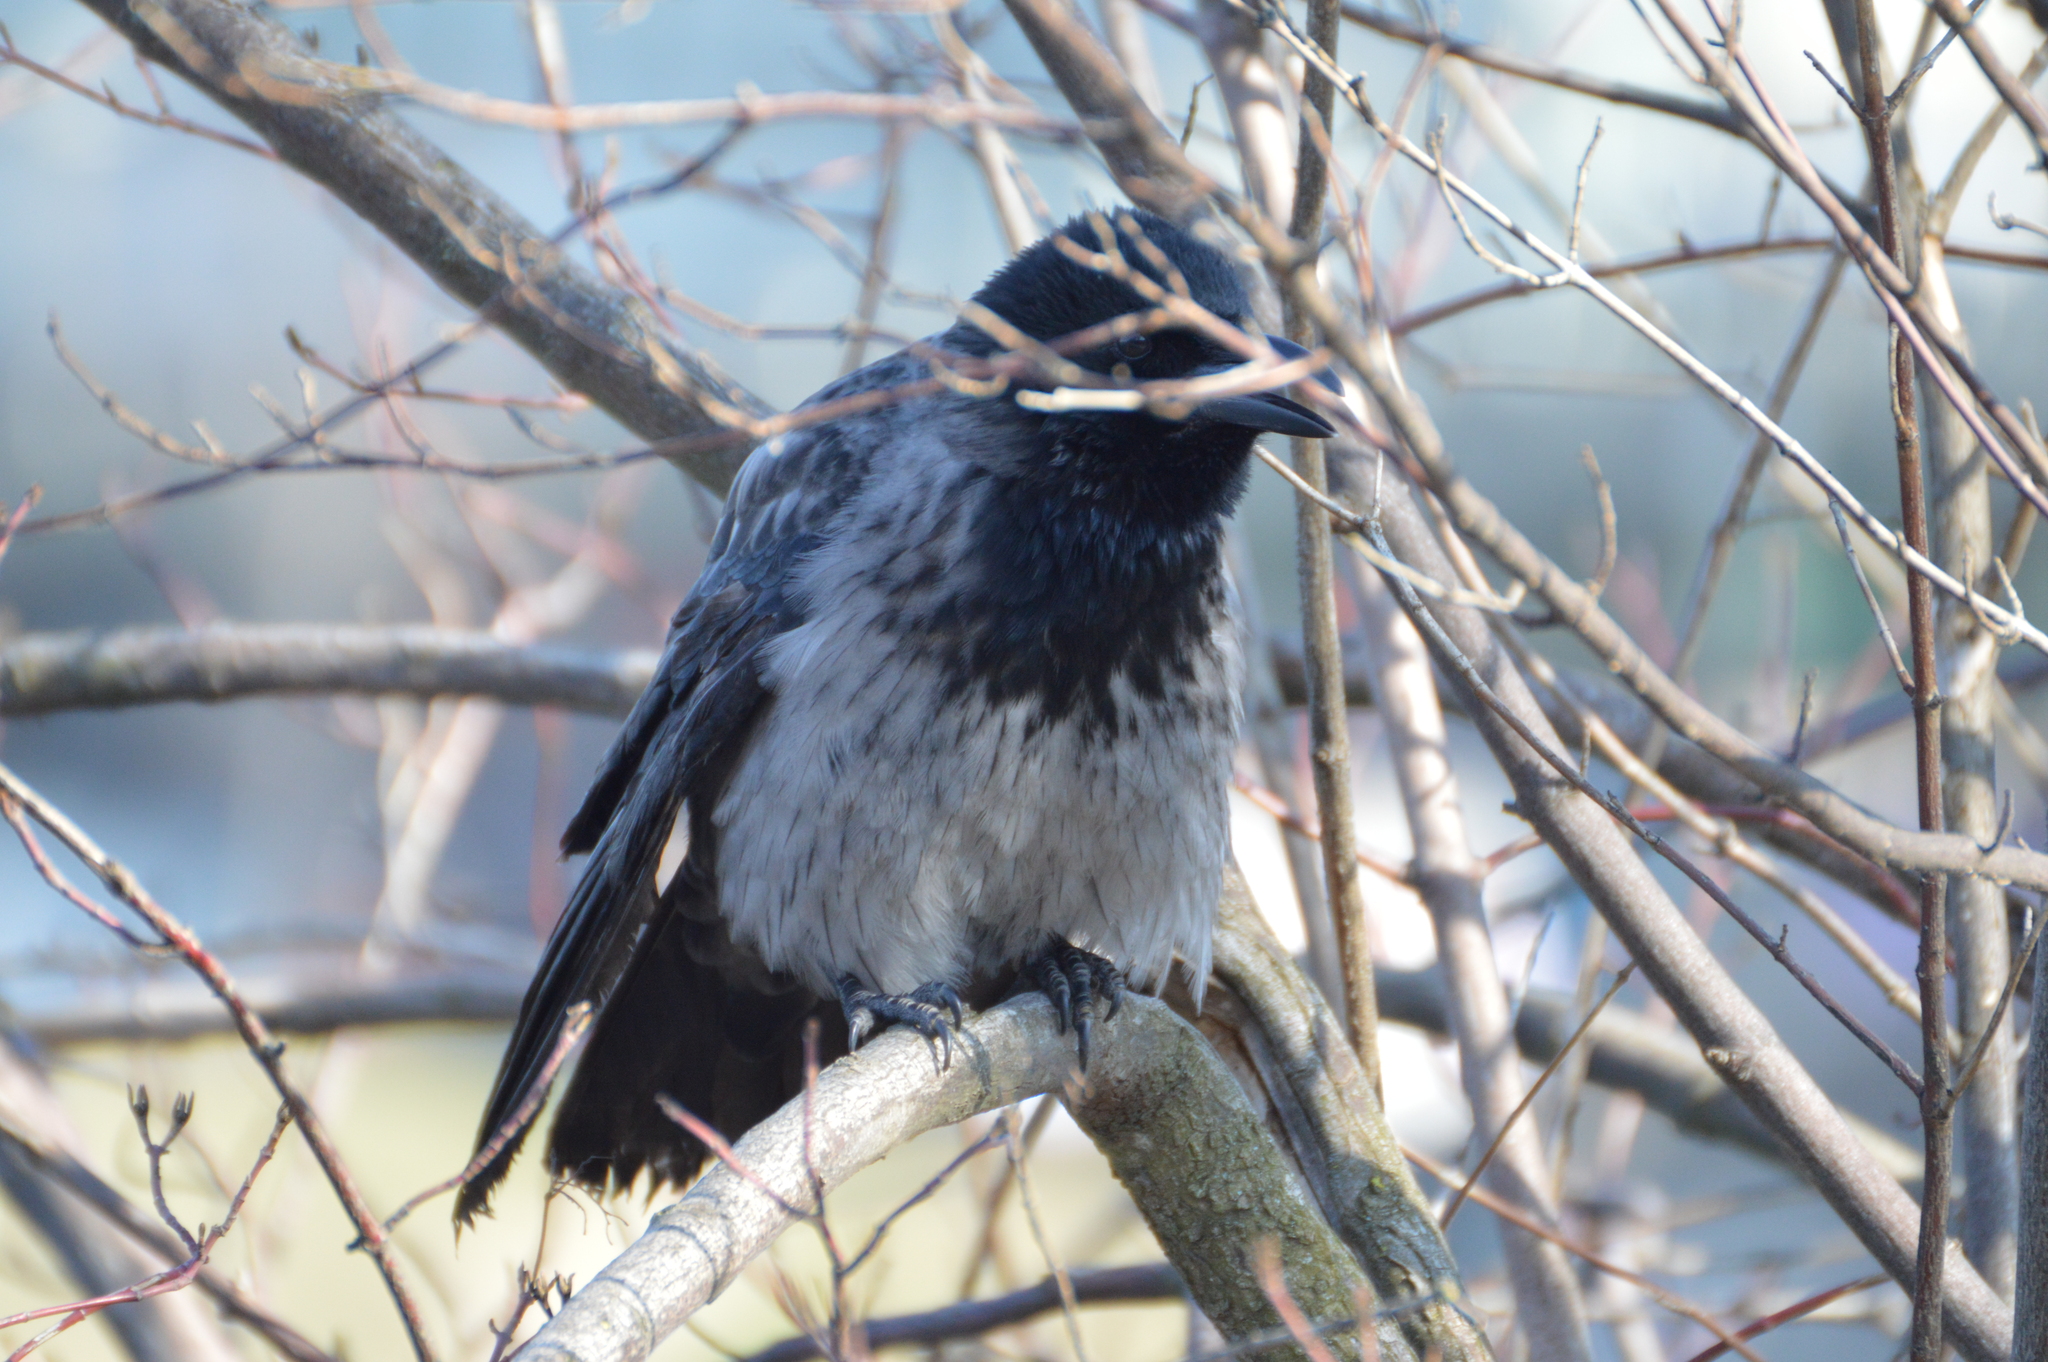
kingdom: Animalia
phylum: Chordata
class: Aves
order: Passeriformes
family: Corvidae
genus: Corvus
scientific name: Corvus
